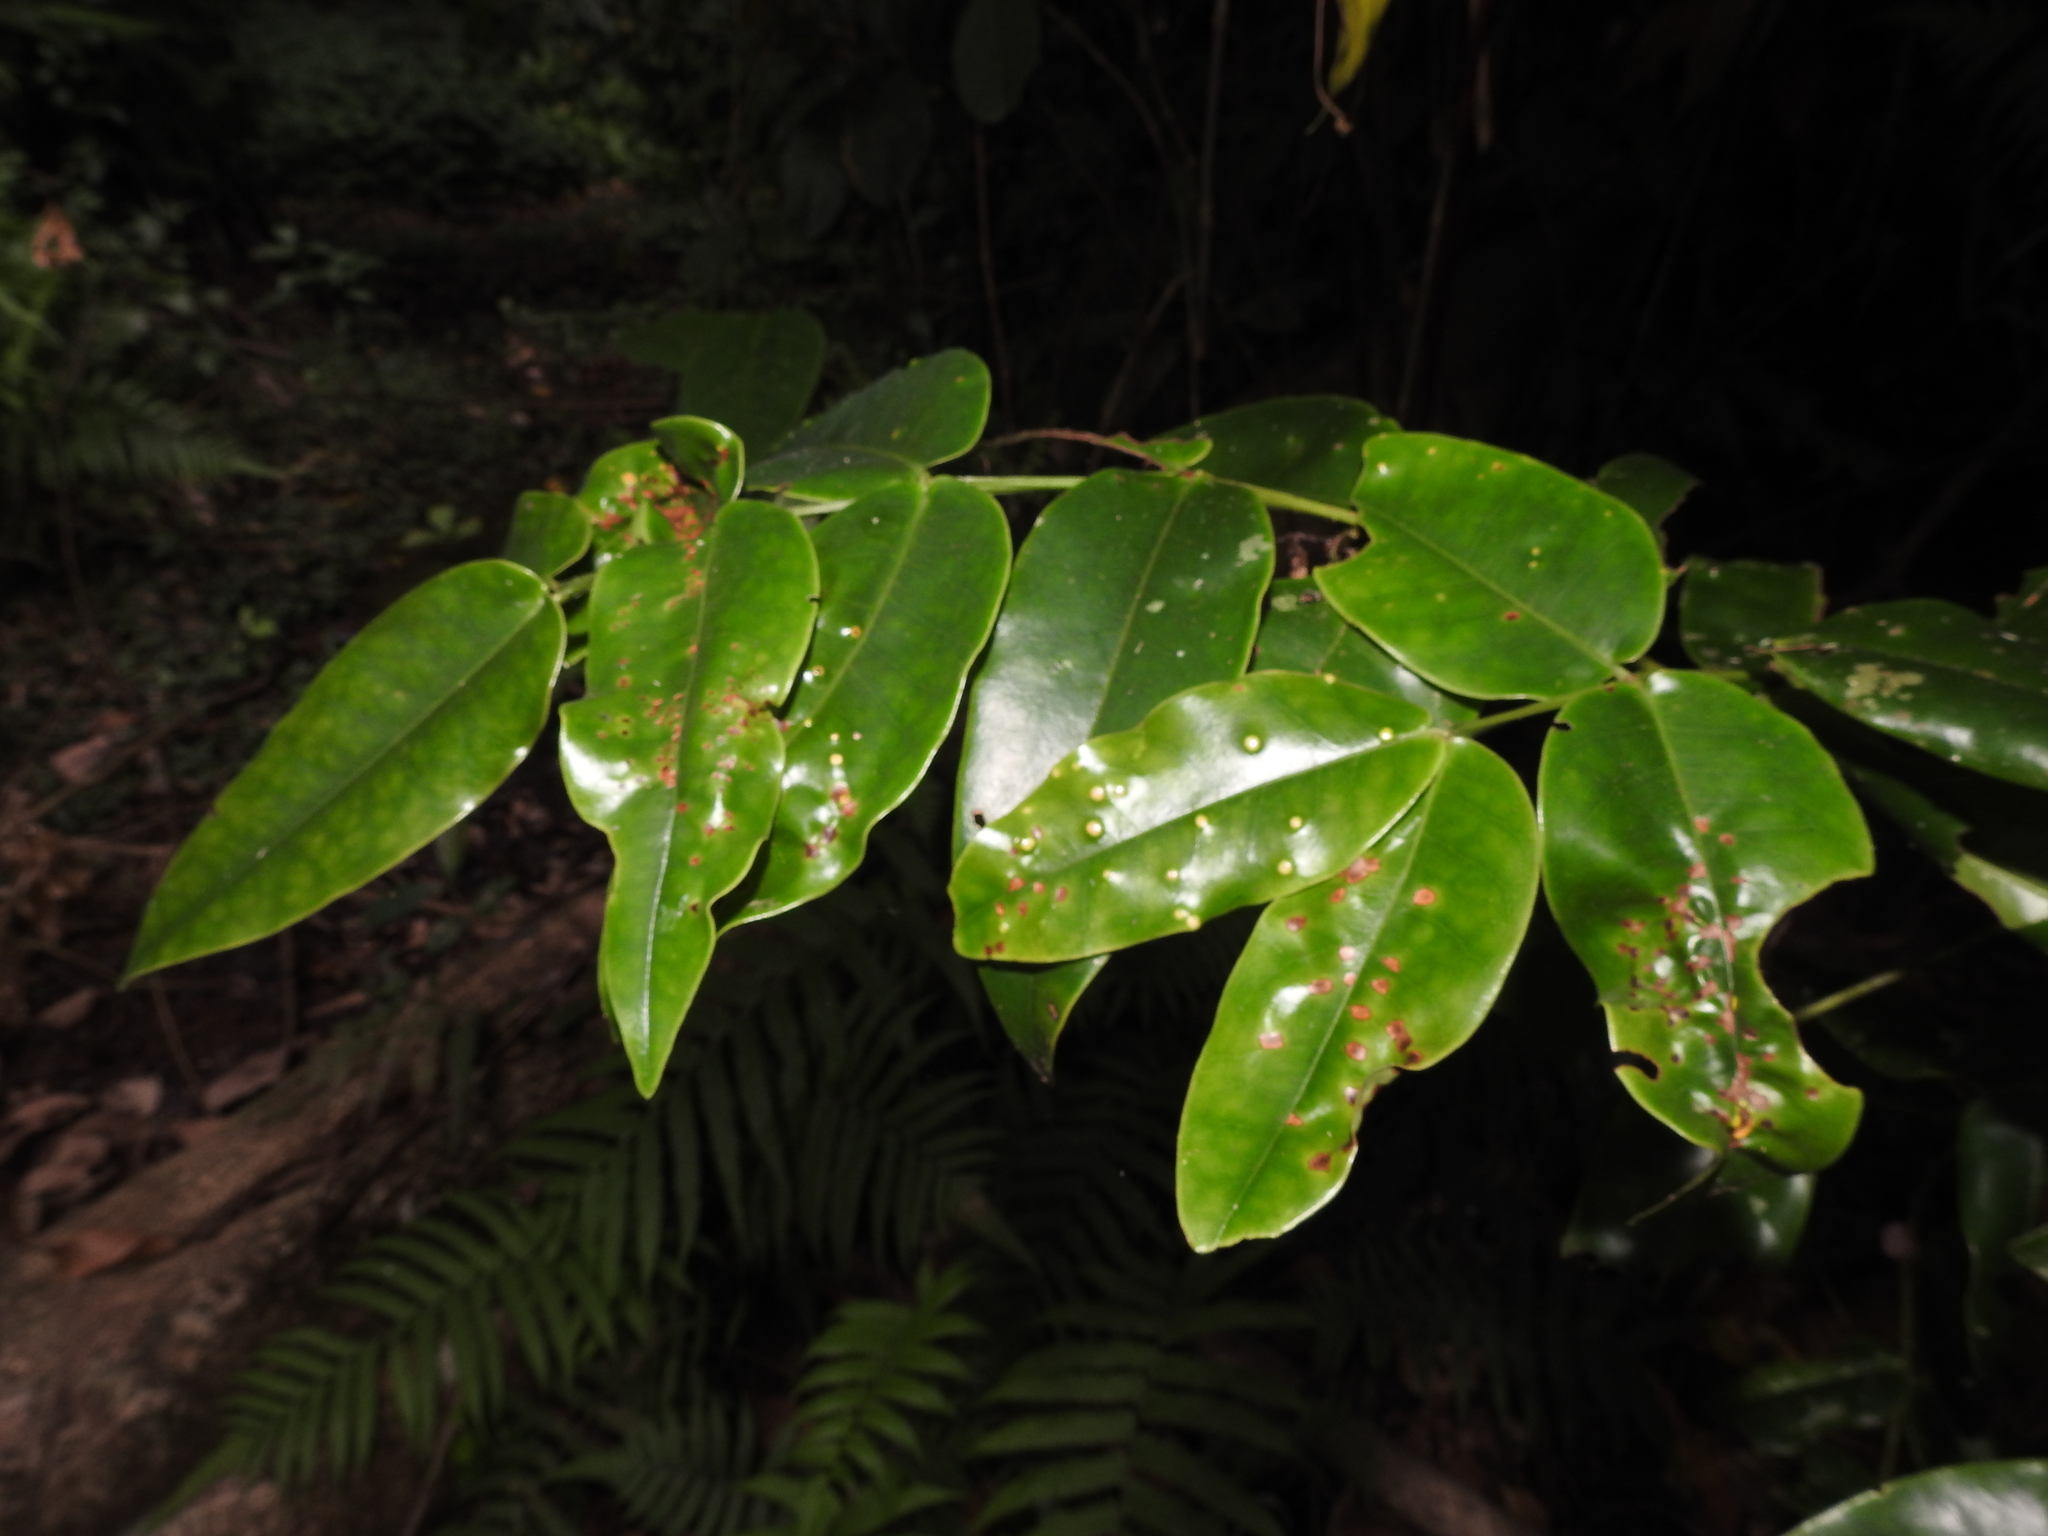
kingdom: Plantae
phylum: Tracheophyta
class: Magnoliopsida
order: Myrtales
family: Melastomataceae
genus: Memecylon
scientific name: Memecylon sessile
